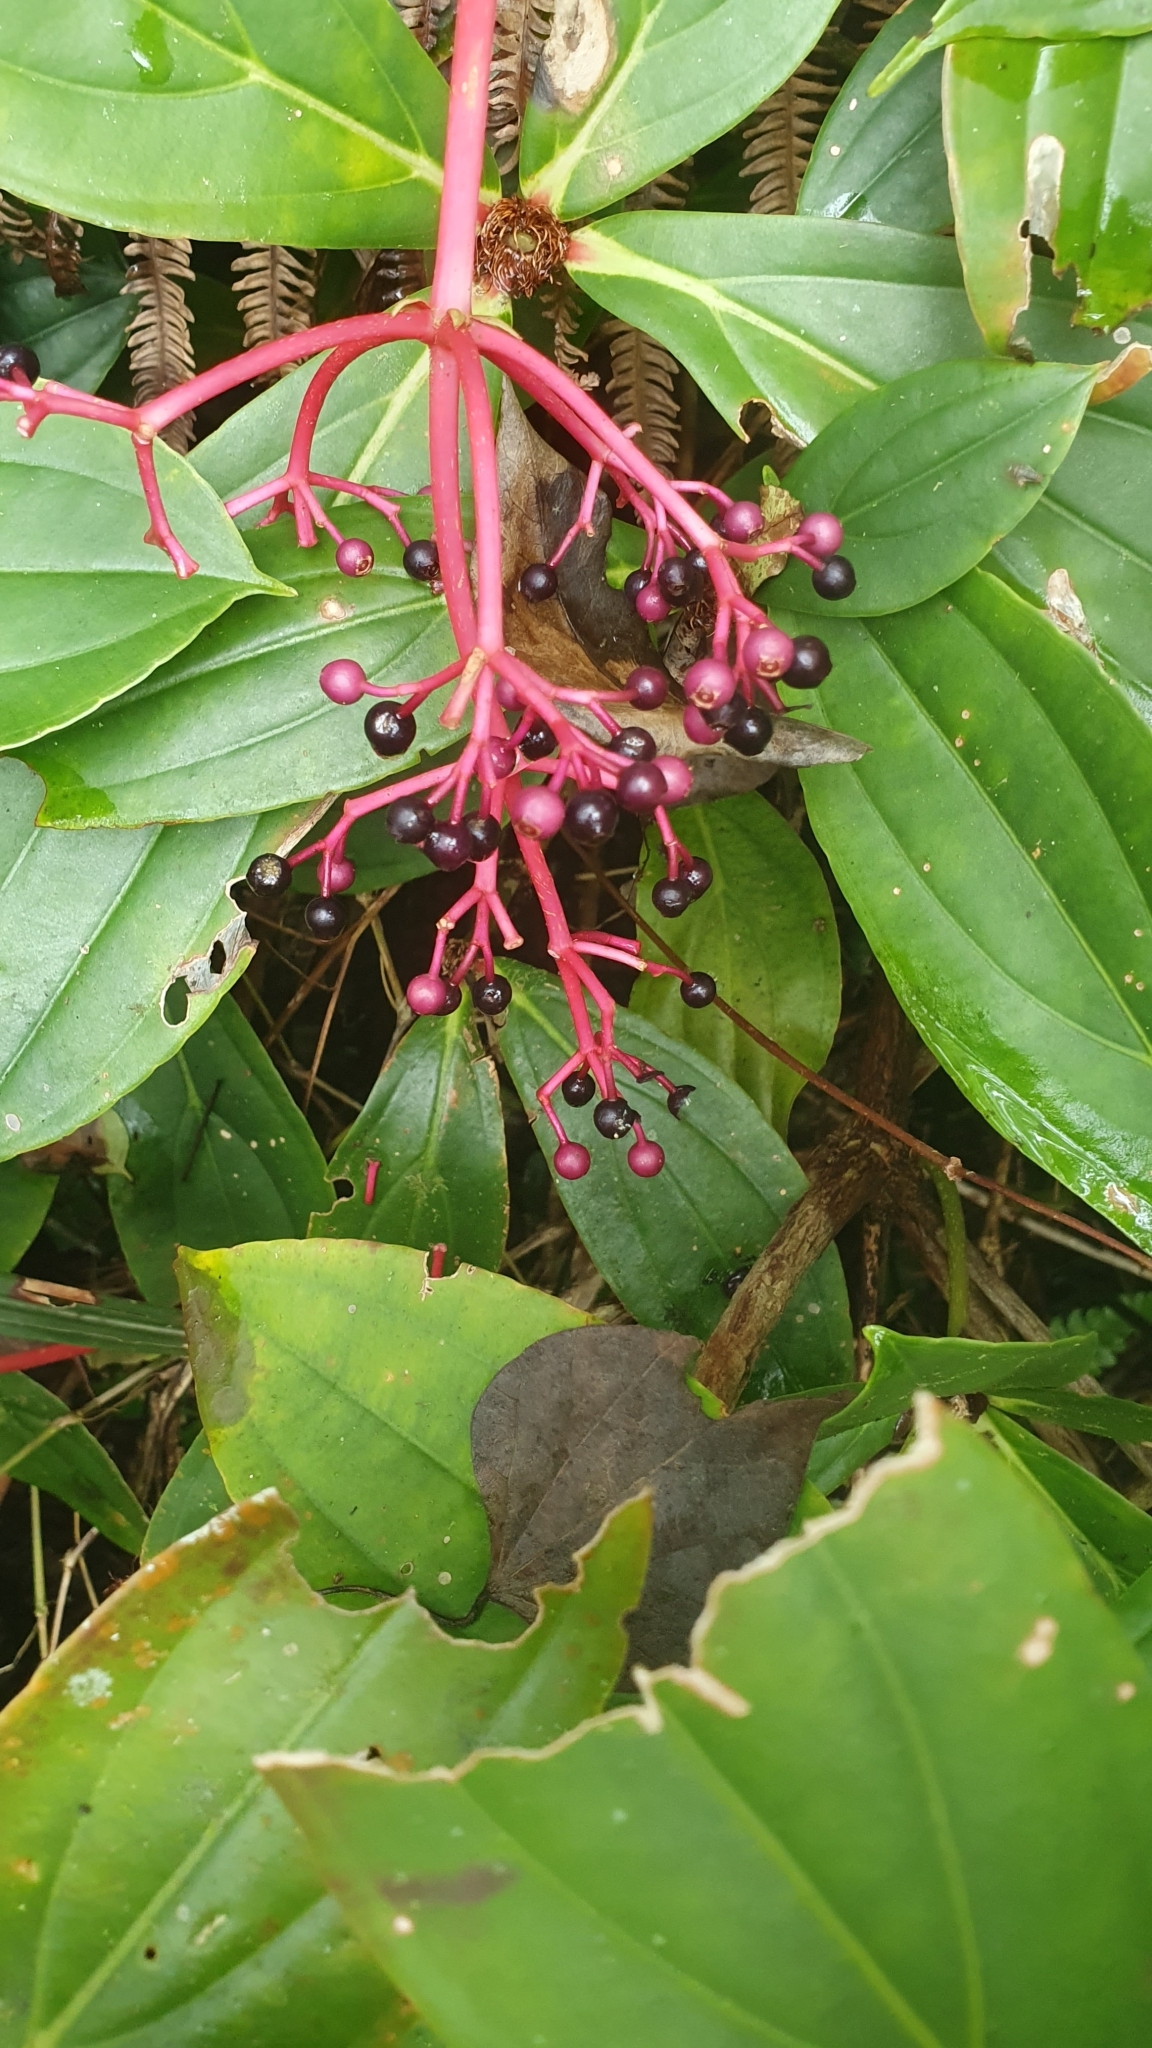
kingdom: Plantae
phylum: Tracheophyta
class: Magnoliopsida
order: Myrtales
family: Melastomataceae
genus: Medinilla
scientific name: Medinilla formosana
